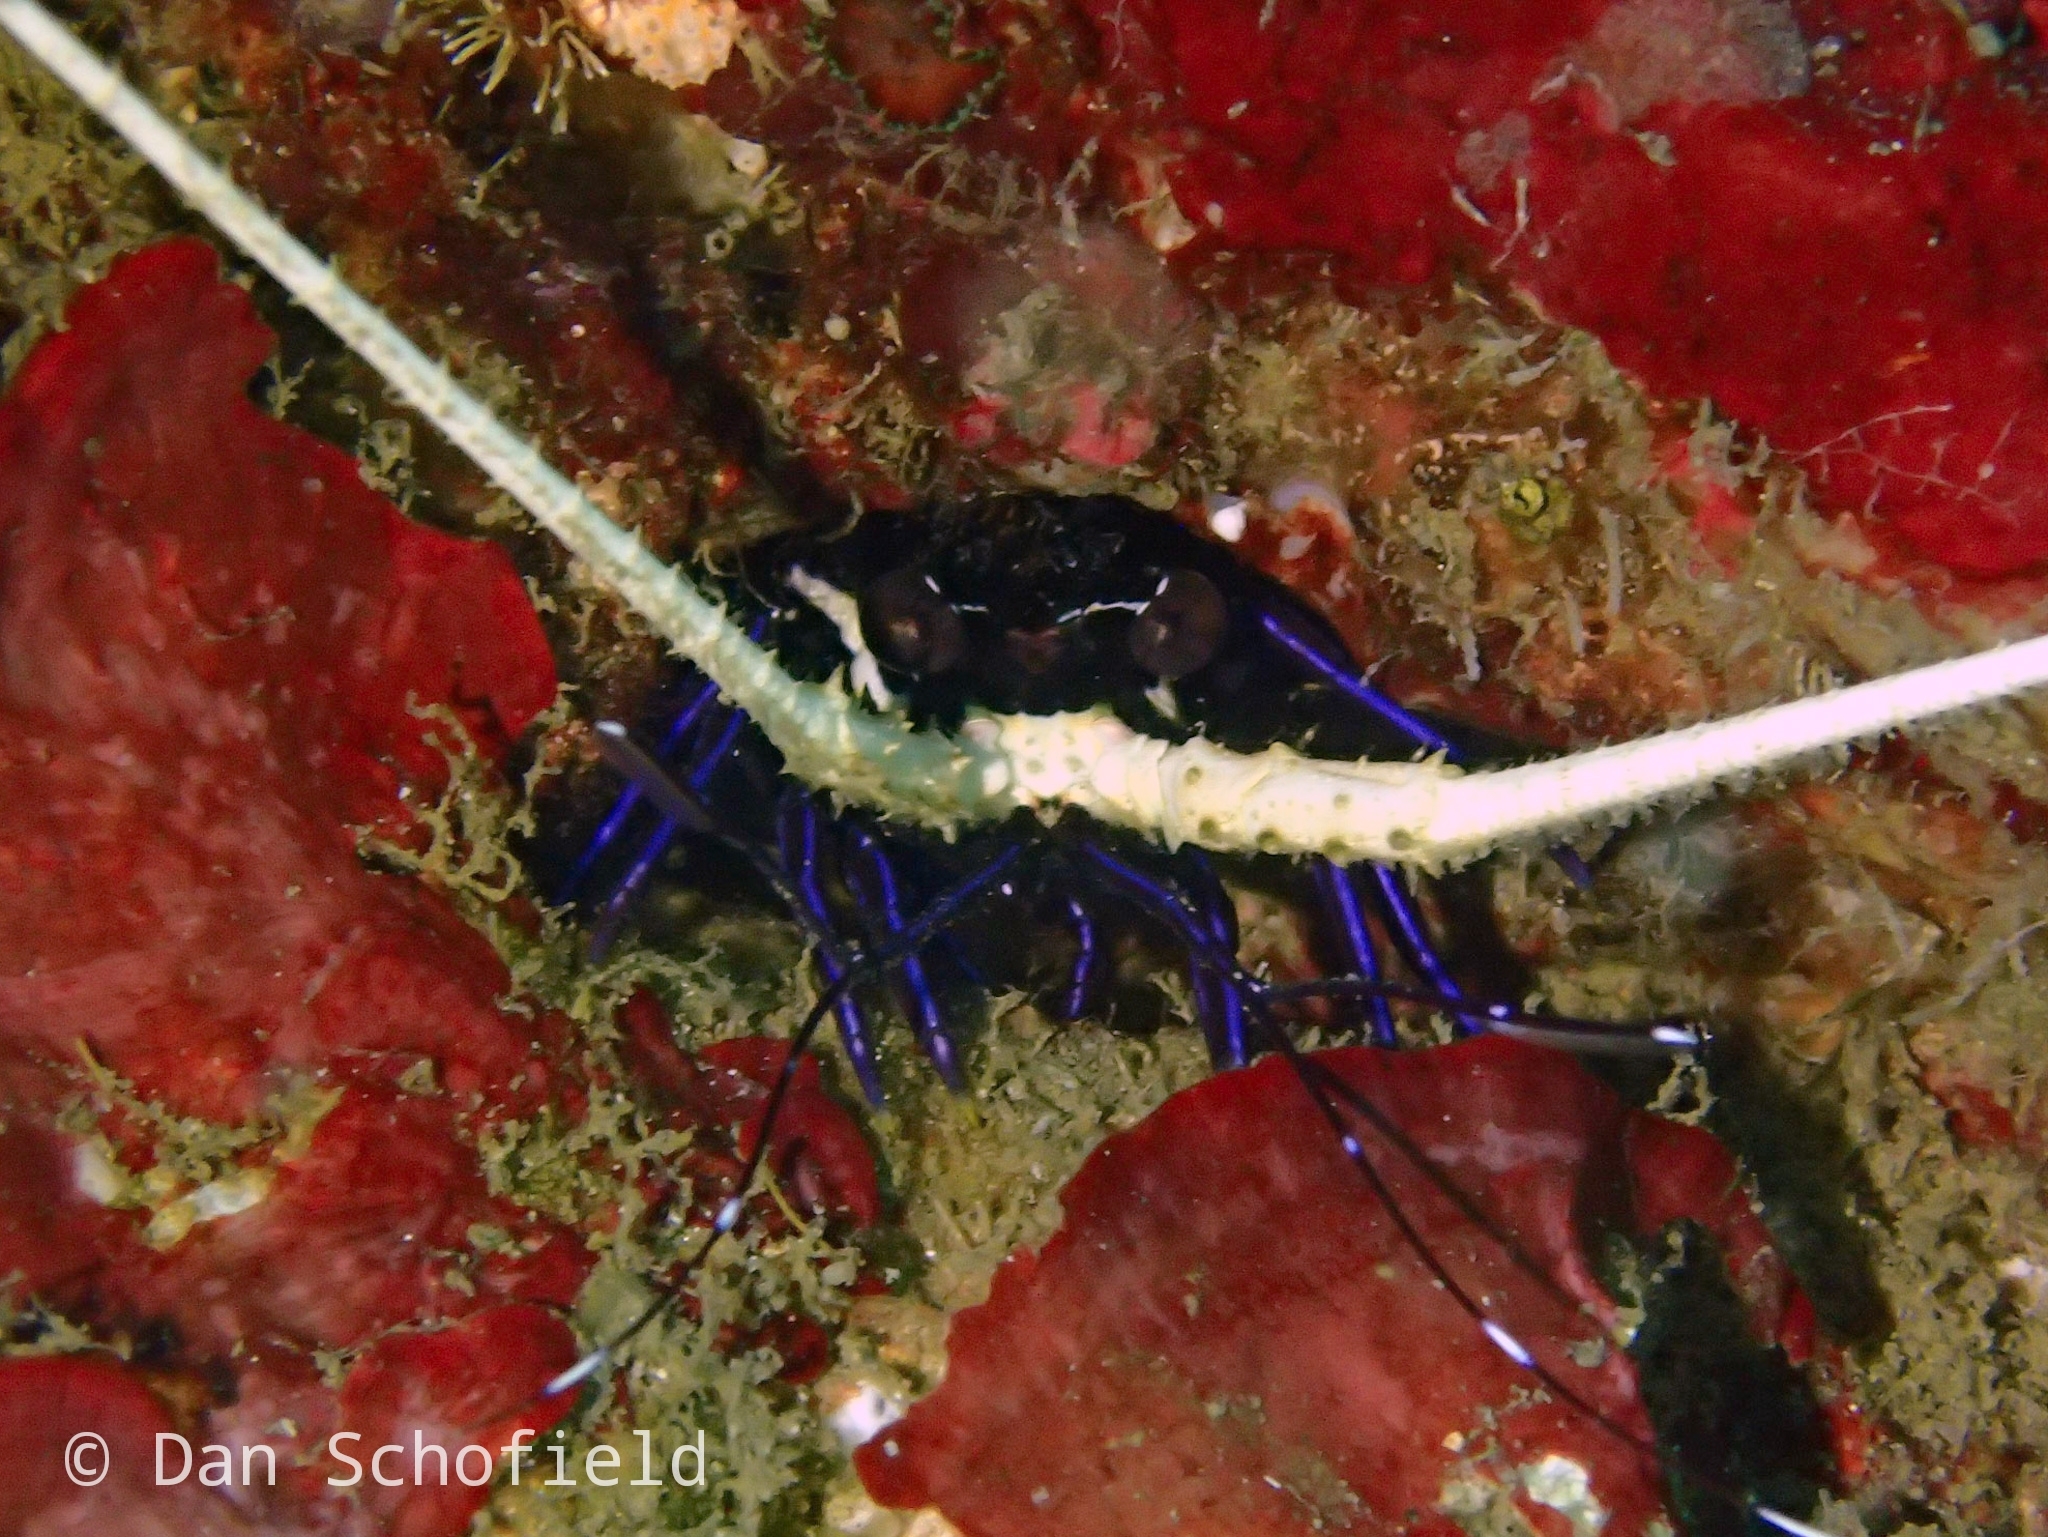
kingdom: Animalia
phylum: Arthropoda
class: Malacostraca
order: Decapoda
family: Palinuridae
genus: Panulirus
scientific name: Panulirus versicolor
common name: Painted spiny lobster
